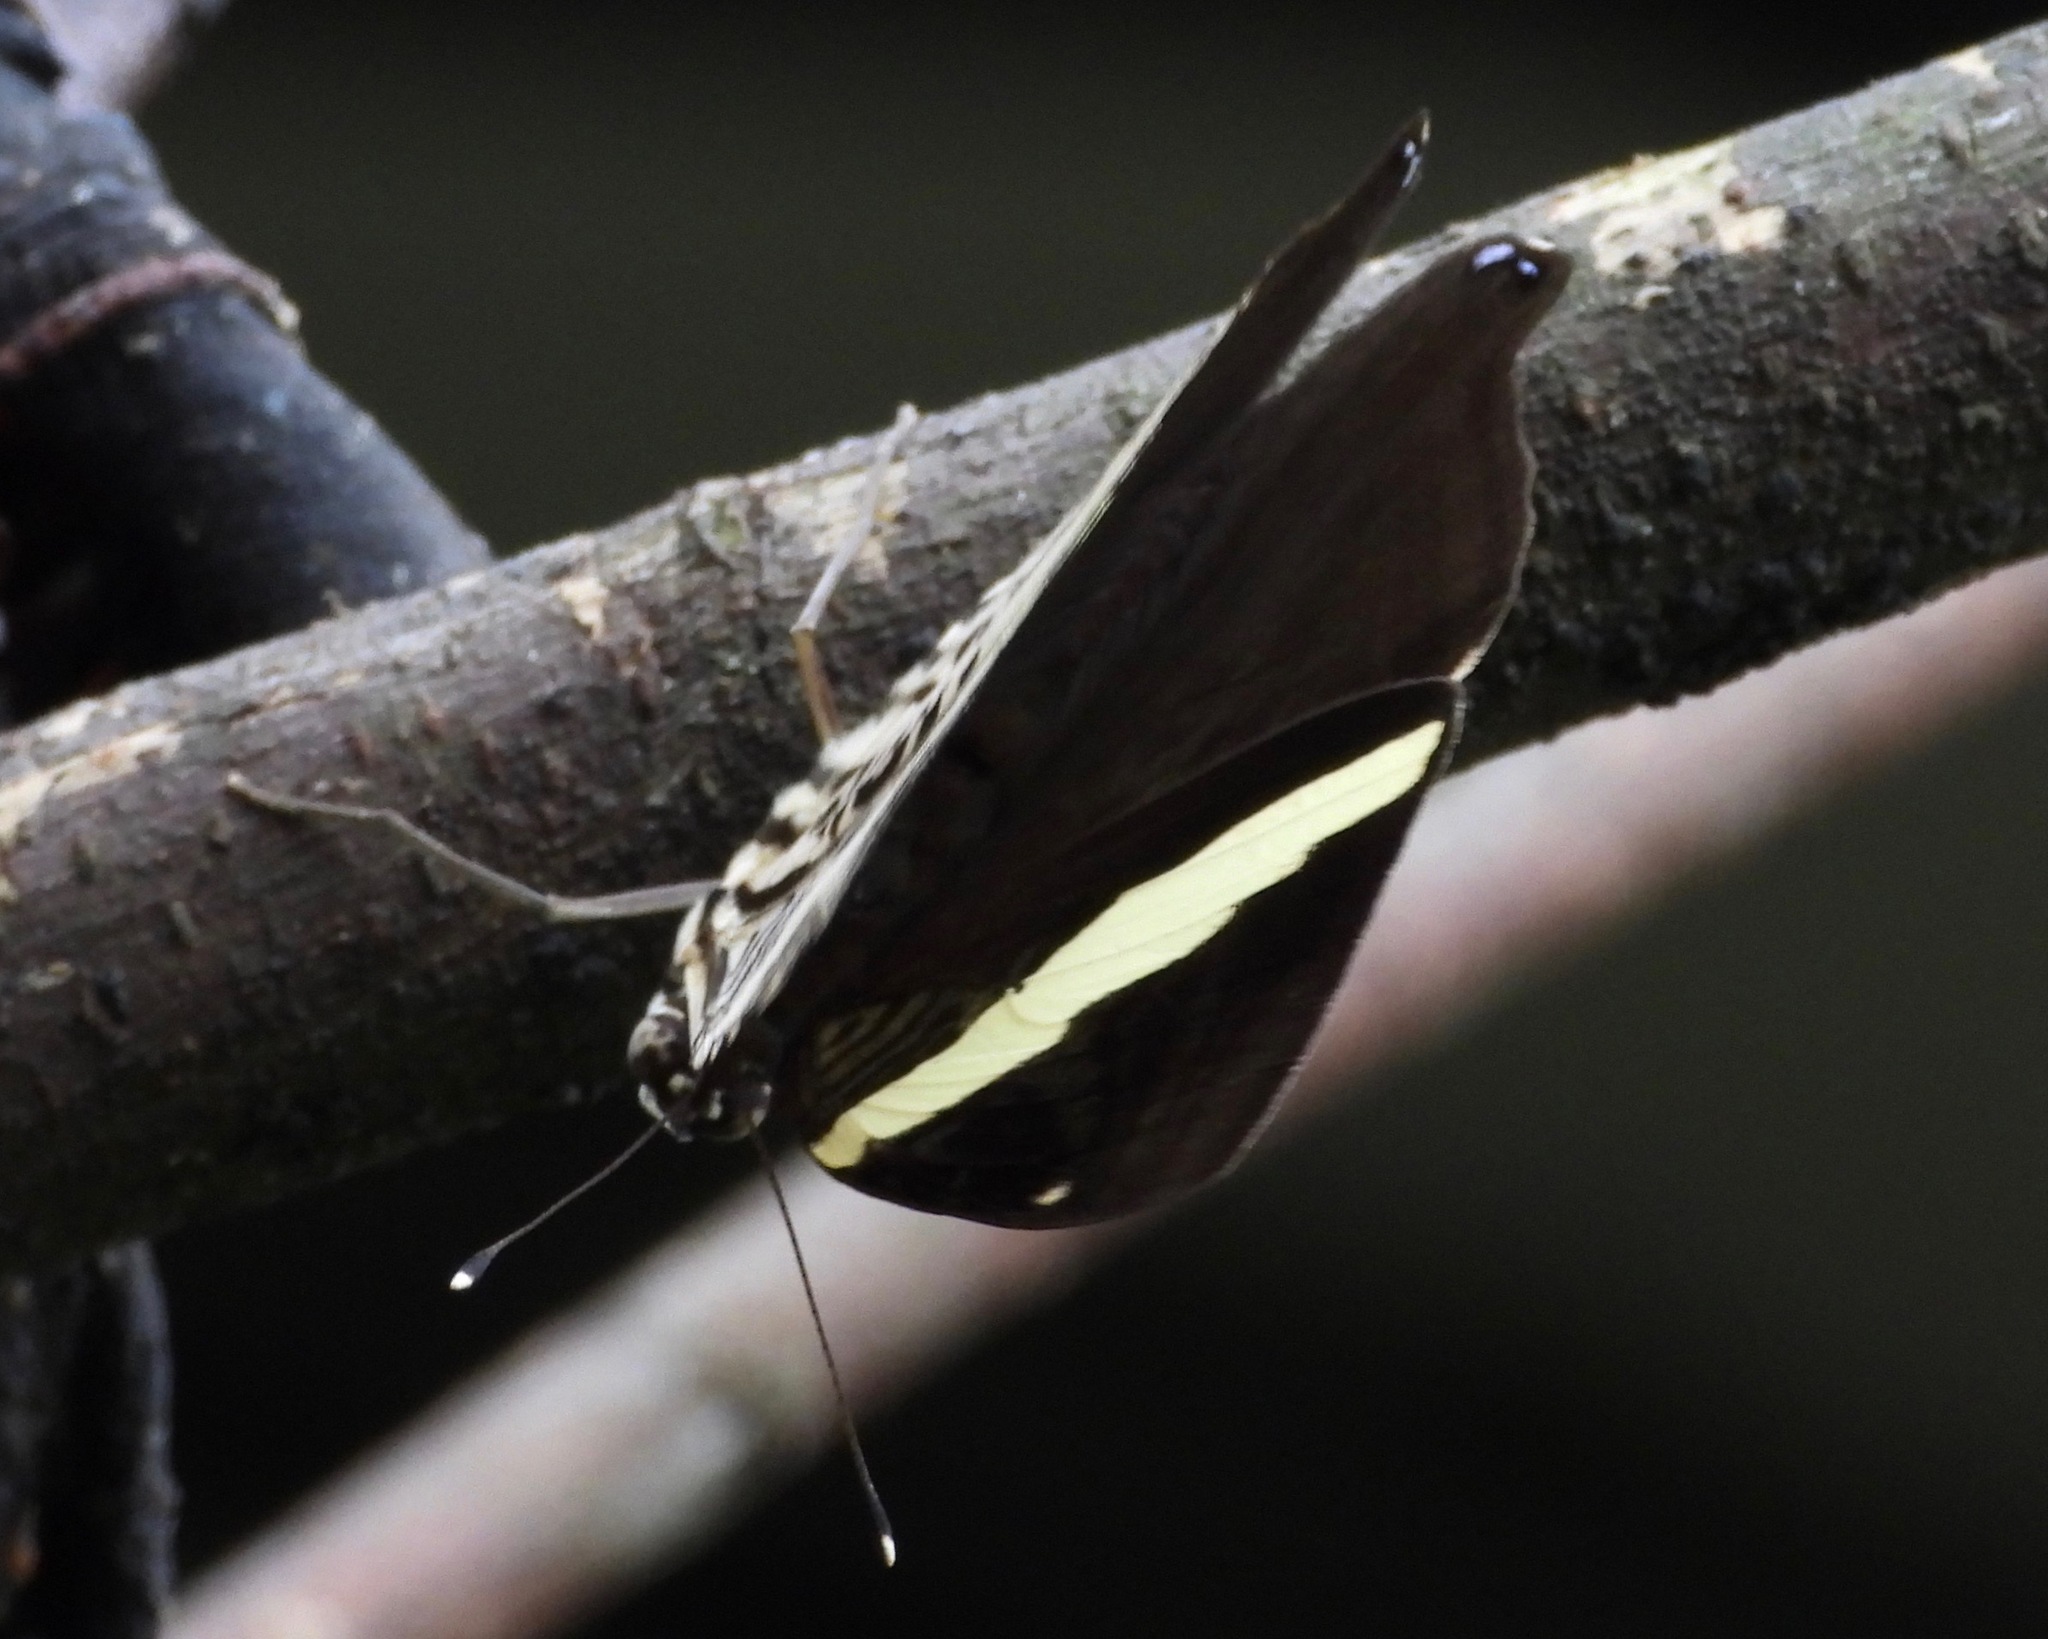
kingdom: Animalia
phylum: Arthropoda
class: Insecta
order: Lepidoptera
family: Nymphalidae
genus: Colobura
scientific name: Colobura dirce
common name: Dirce beauty
